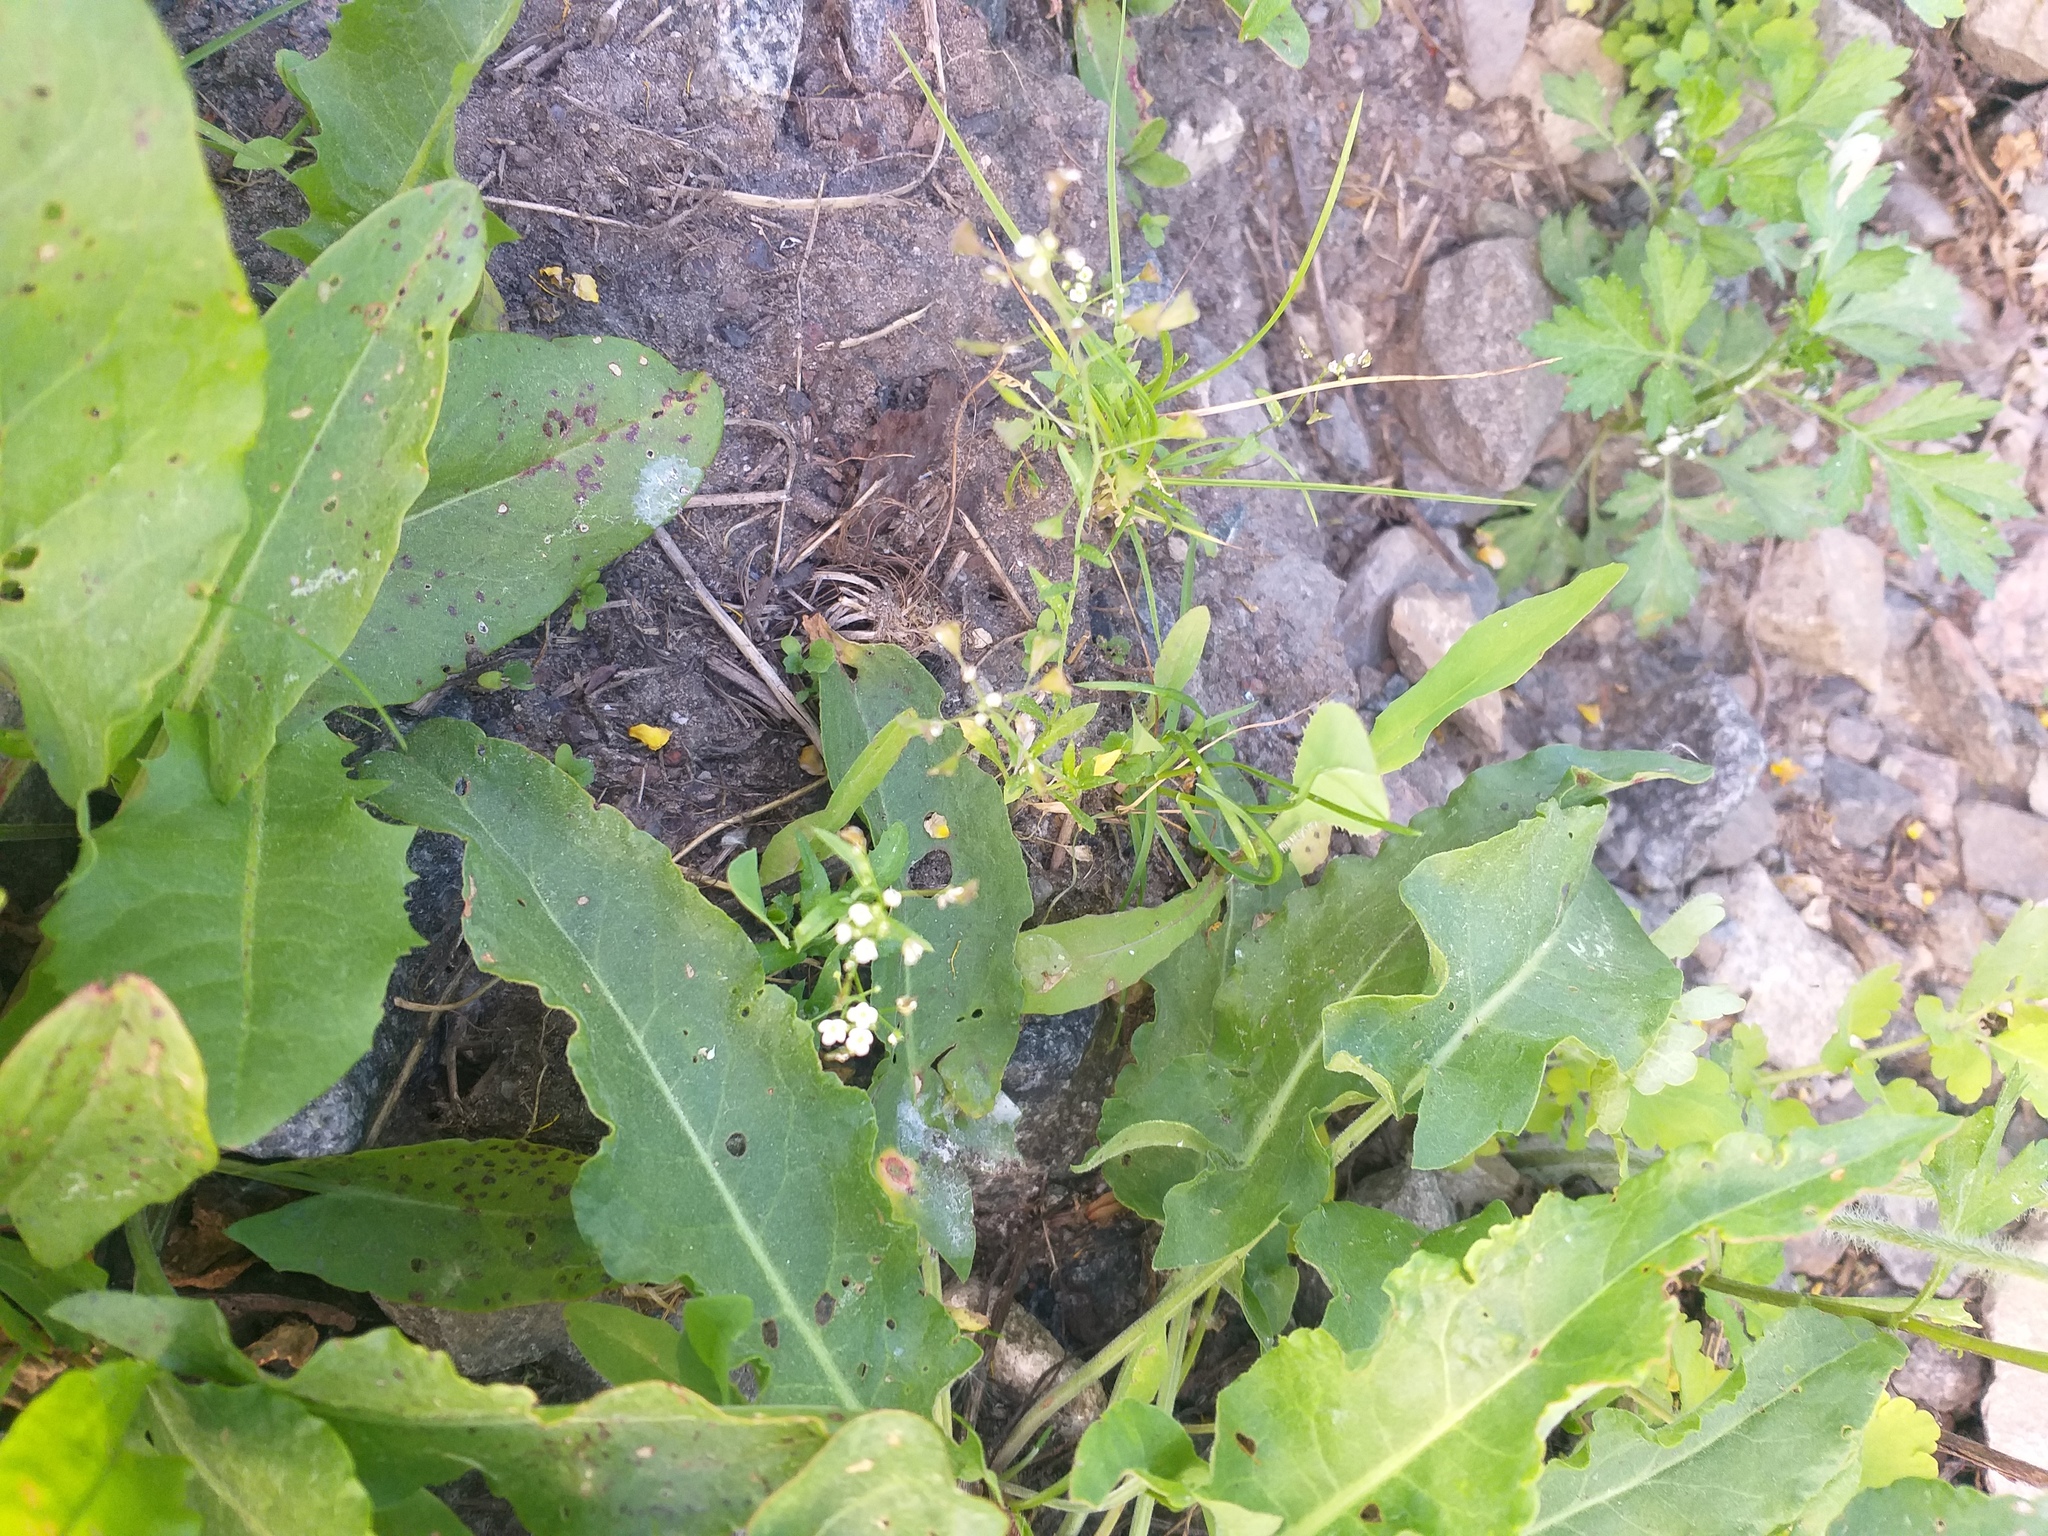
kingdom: Plantae
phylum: Tracheophyta
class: Magnoliopsida
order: Brassicales
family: Brassicaceae
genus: Capsella
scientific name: Capsella bursa-pastoris
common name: Shepherd's purse
